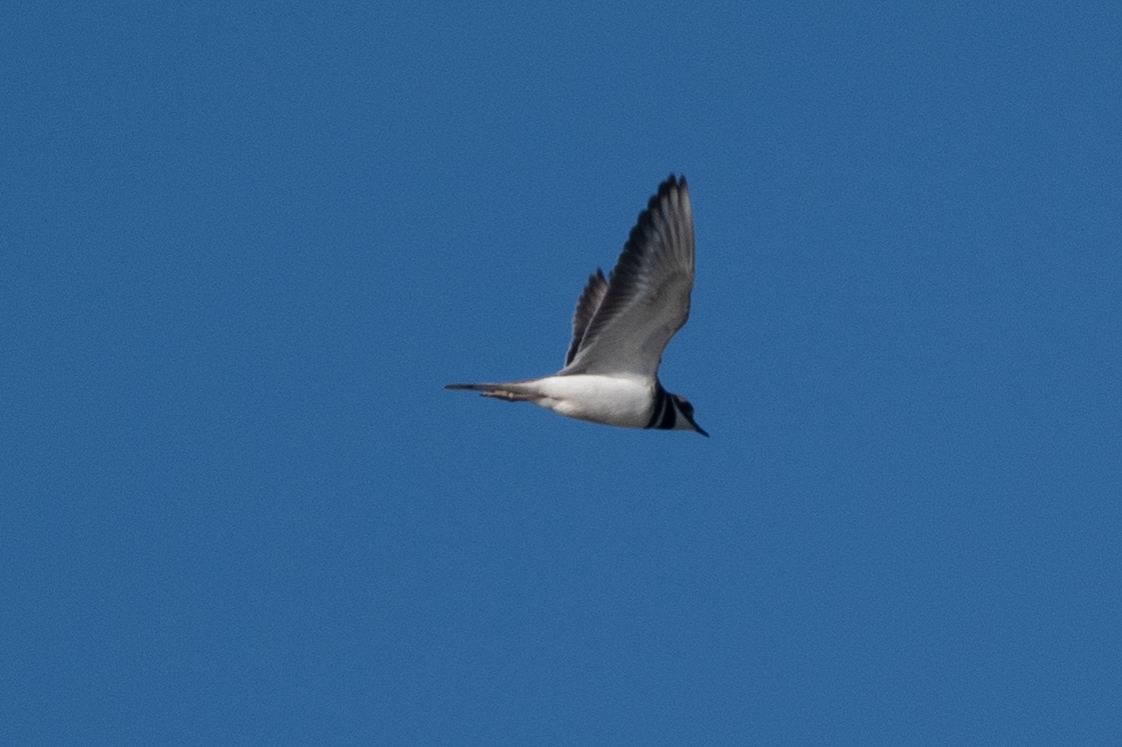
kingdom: Animalia
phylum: Chordata
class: Aves
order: Charadriiformes
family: Charadriidae
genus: Charadrius
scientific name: Charadrius vociferus
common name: Killdeer
